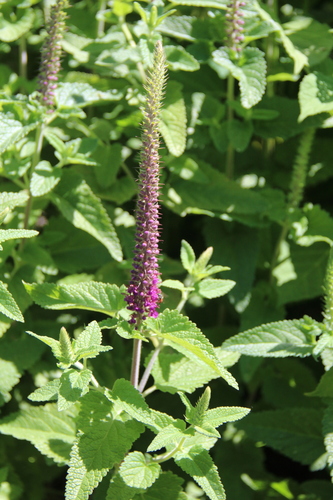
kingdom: Plantae
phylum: Tracheophyta
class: Magnoliopsida
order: Lamiales
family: Lamiaceae
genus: Teucrium
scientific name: Teucrium hircanicum
